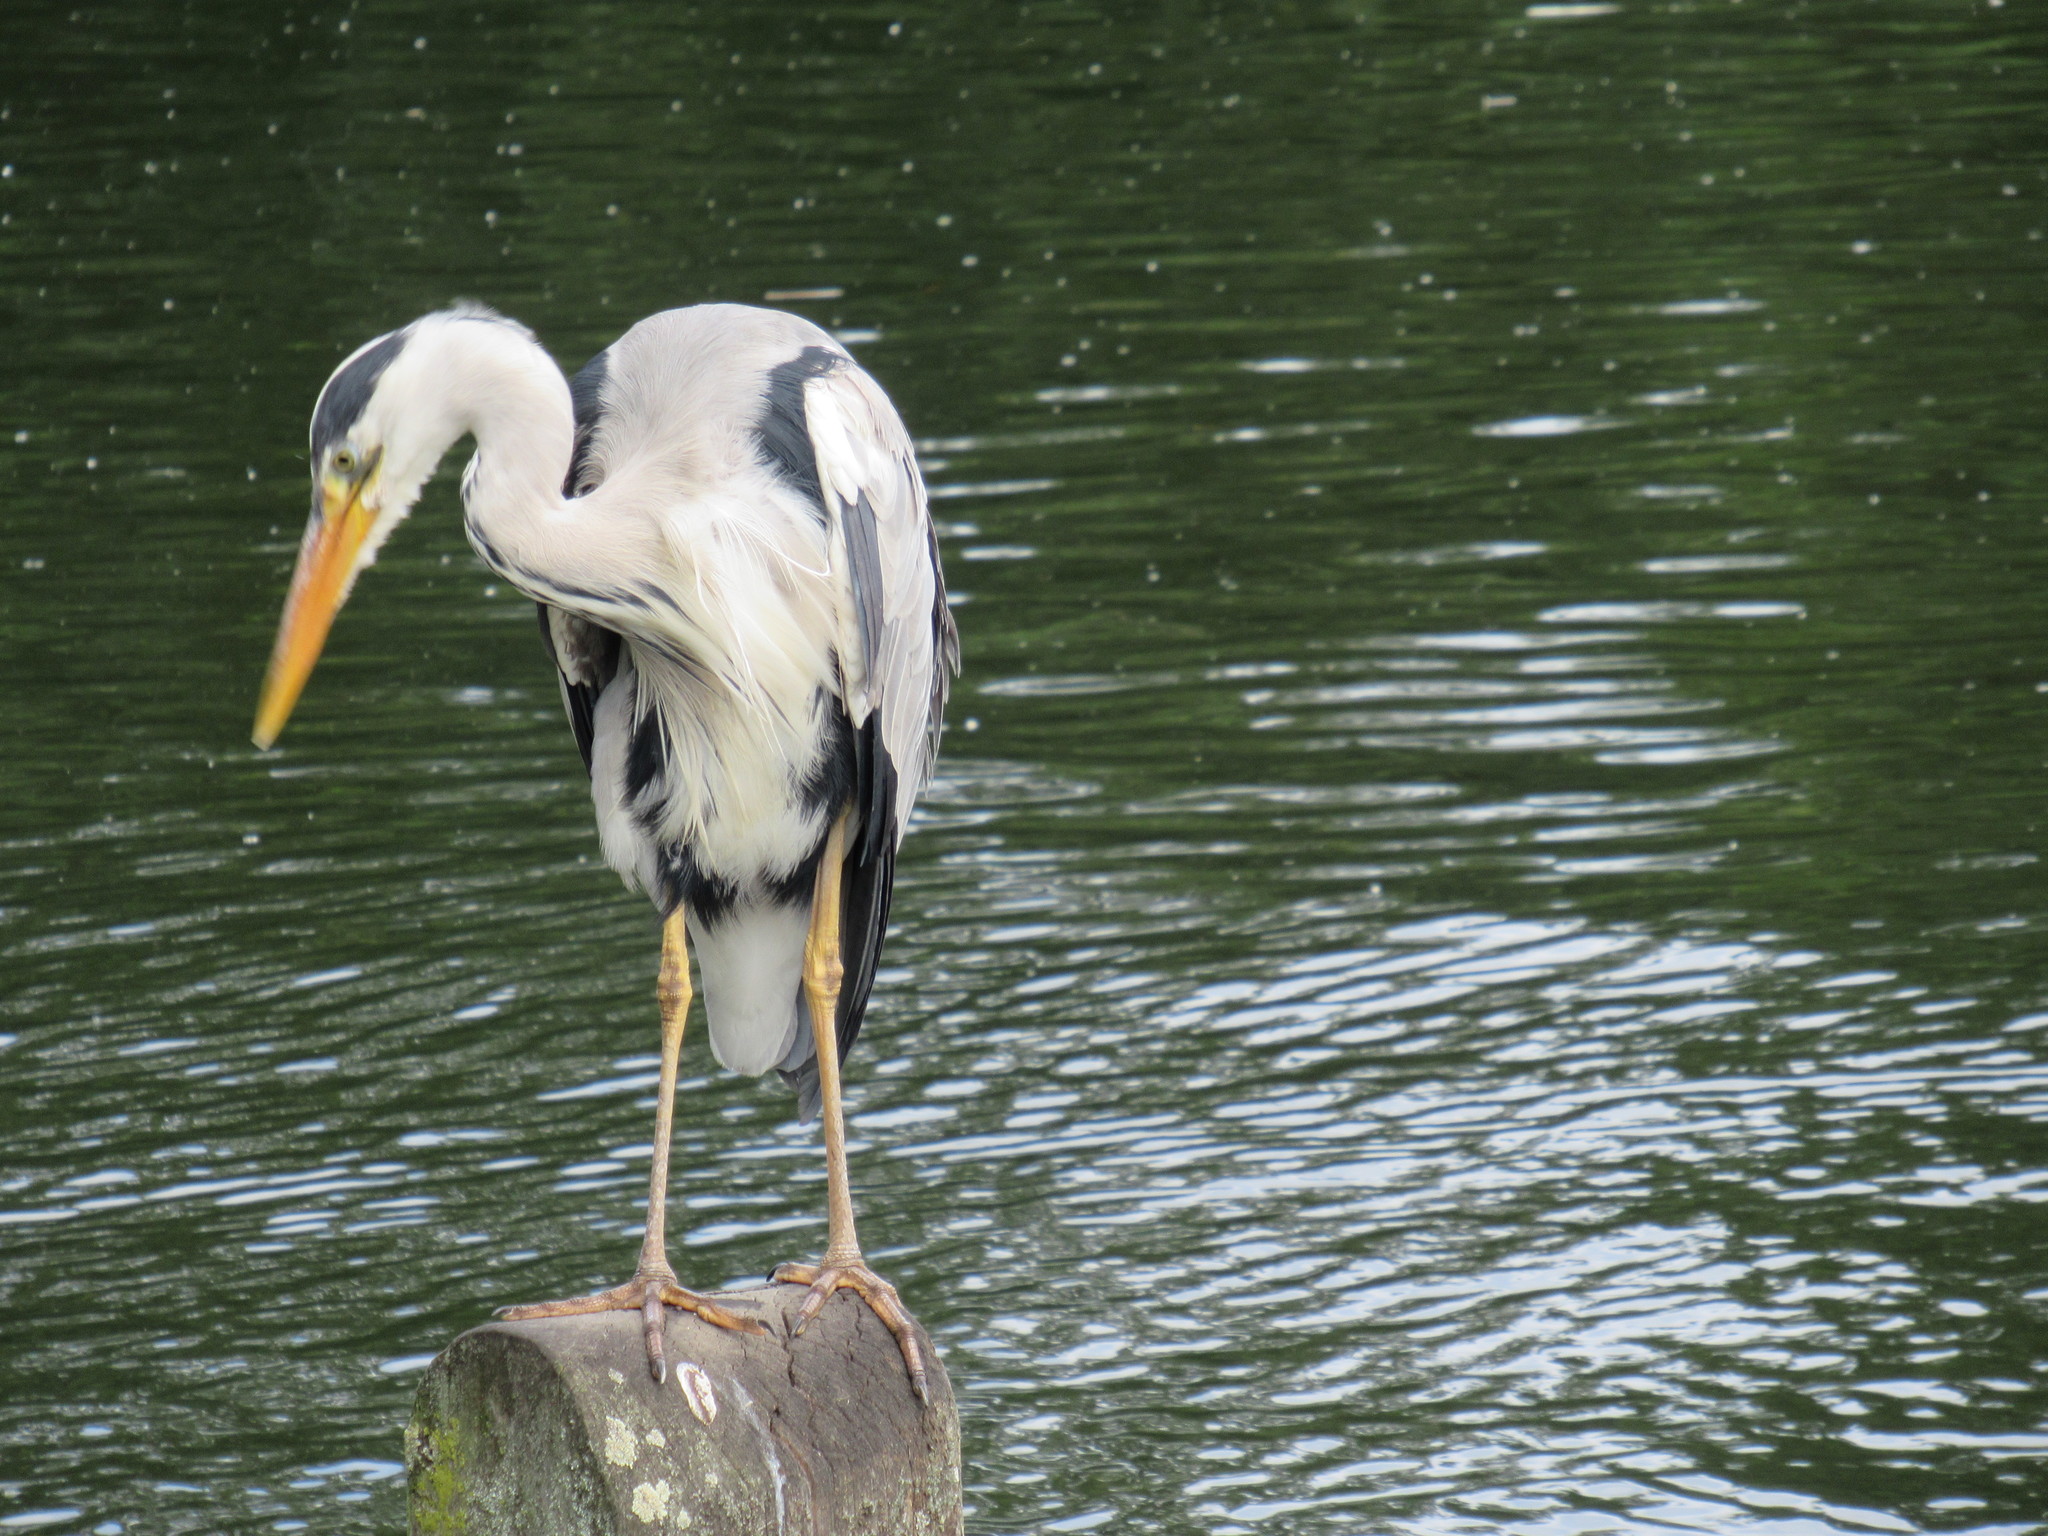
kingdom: Animalia
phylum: Chordata
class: Aves
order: Pelecaniformes
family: Ardeidae
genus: Ardea
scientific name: Ardea cinerea
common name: Grey heron
